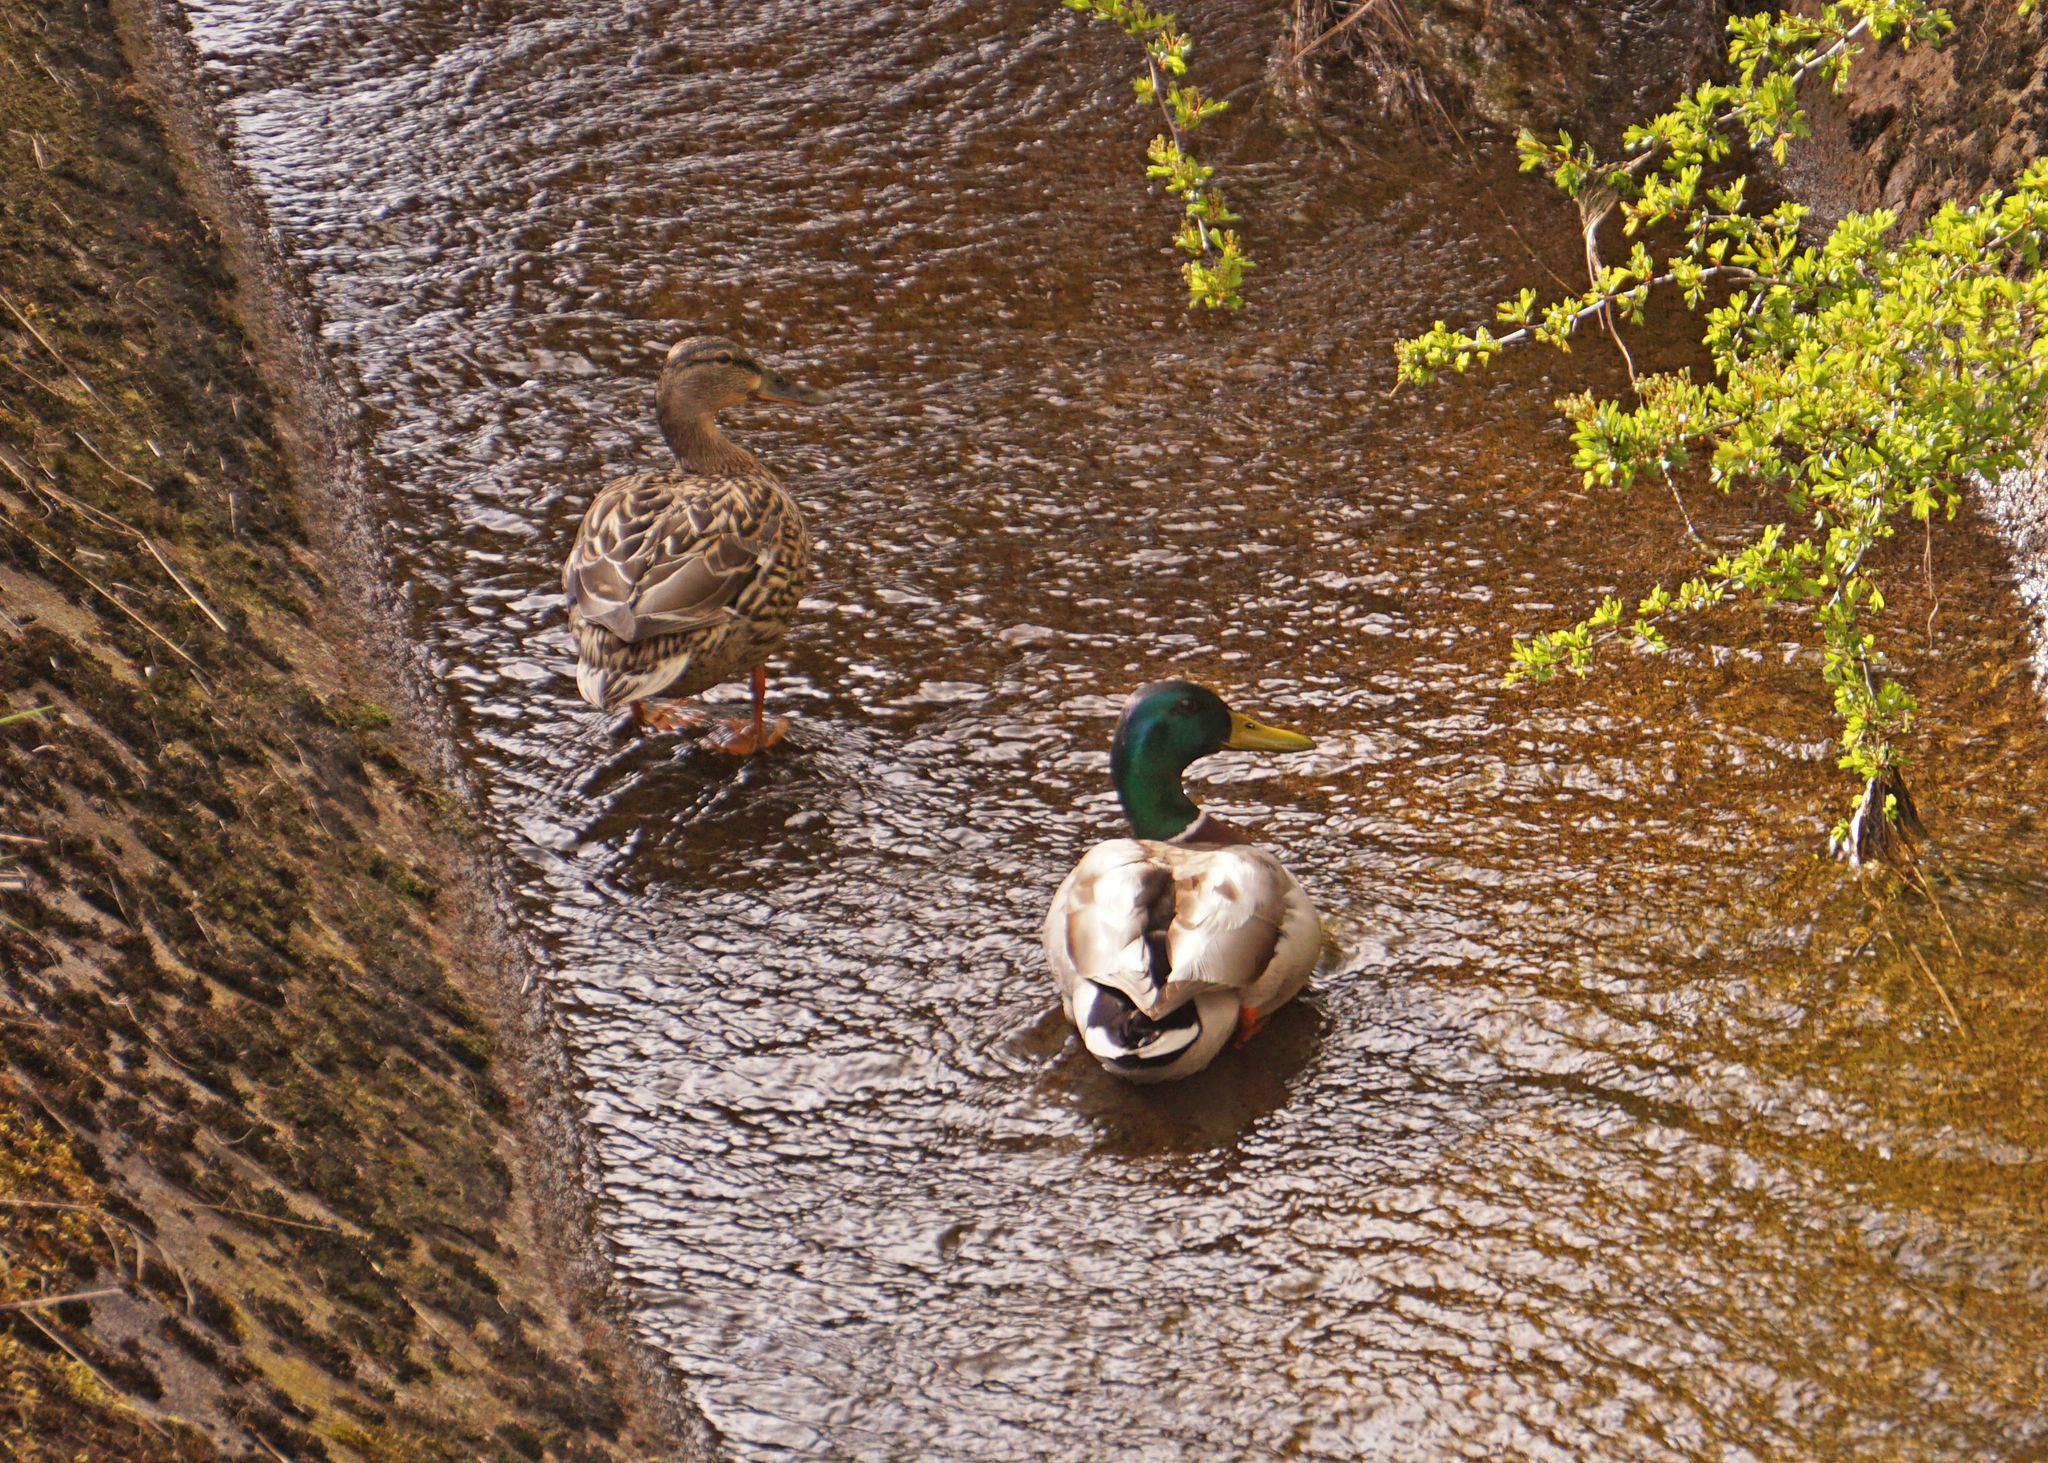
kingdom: Animalia
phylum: Chordata
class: Aves
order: Anseriformes
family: Anatidae
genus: Anas
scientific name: Anas platyrhynchos
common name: Mallard
